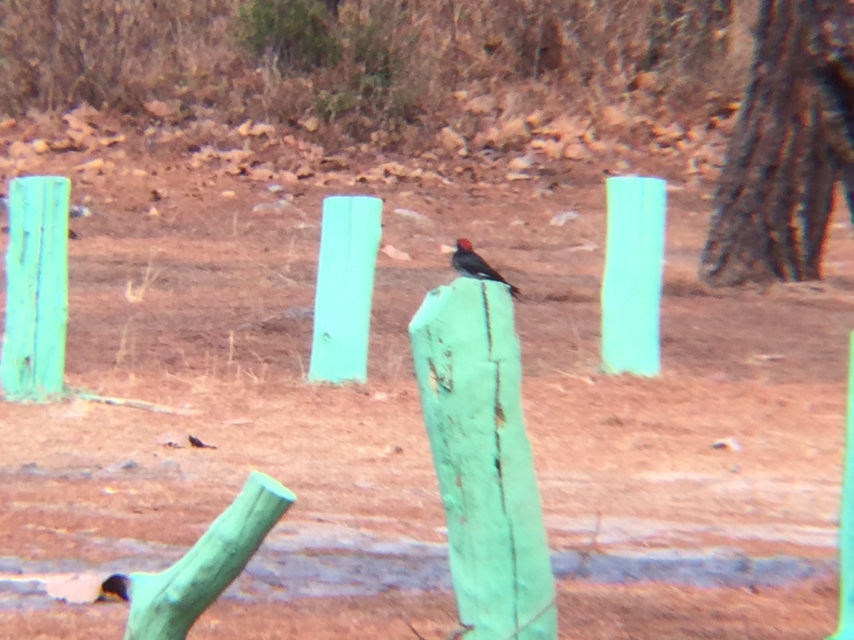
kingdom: Animalia
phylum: Chordata
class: Aves
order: Piciformes
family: Picidae
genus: Melanerpes
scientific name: Melanerpes formicivorus
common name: Acorn woodpecker
